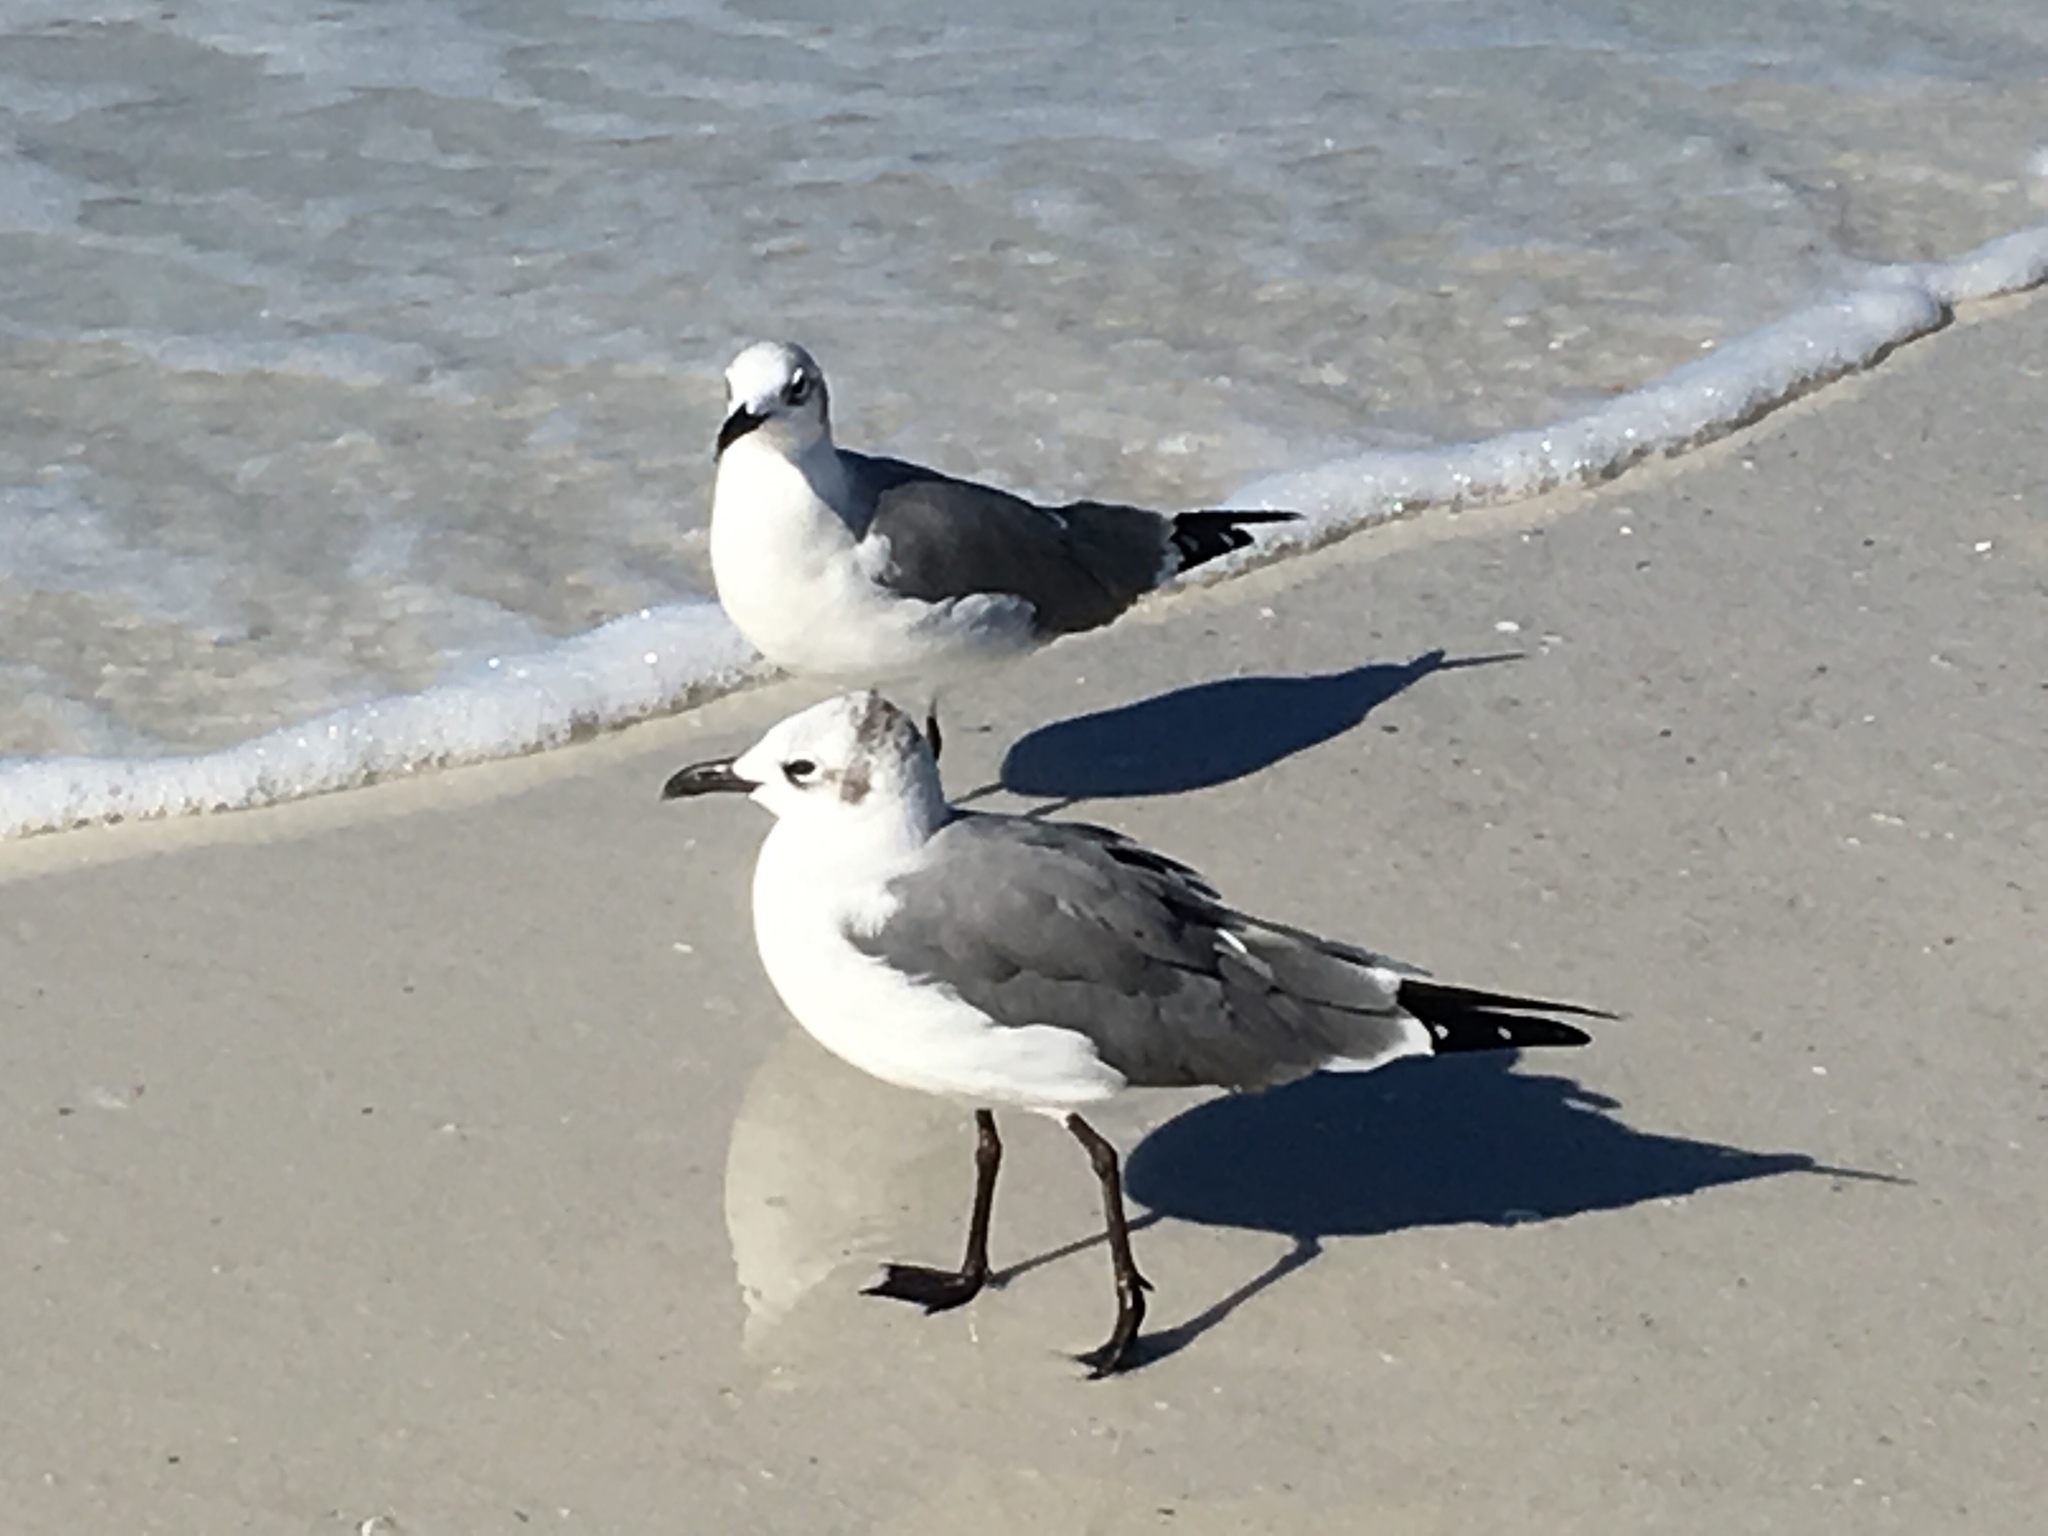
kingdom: Animalia
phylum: Chordata
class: Aves
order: Charadriiformes
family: Laridae
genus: Leucophaeus
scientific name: Leucophaeus atricilla
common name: Laughing gull
